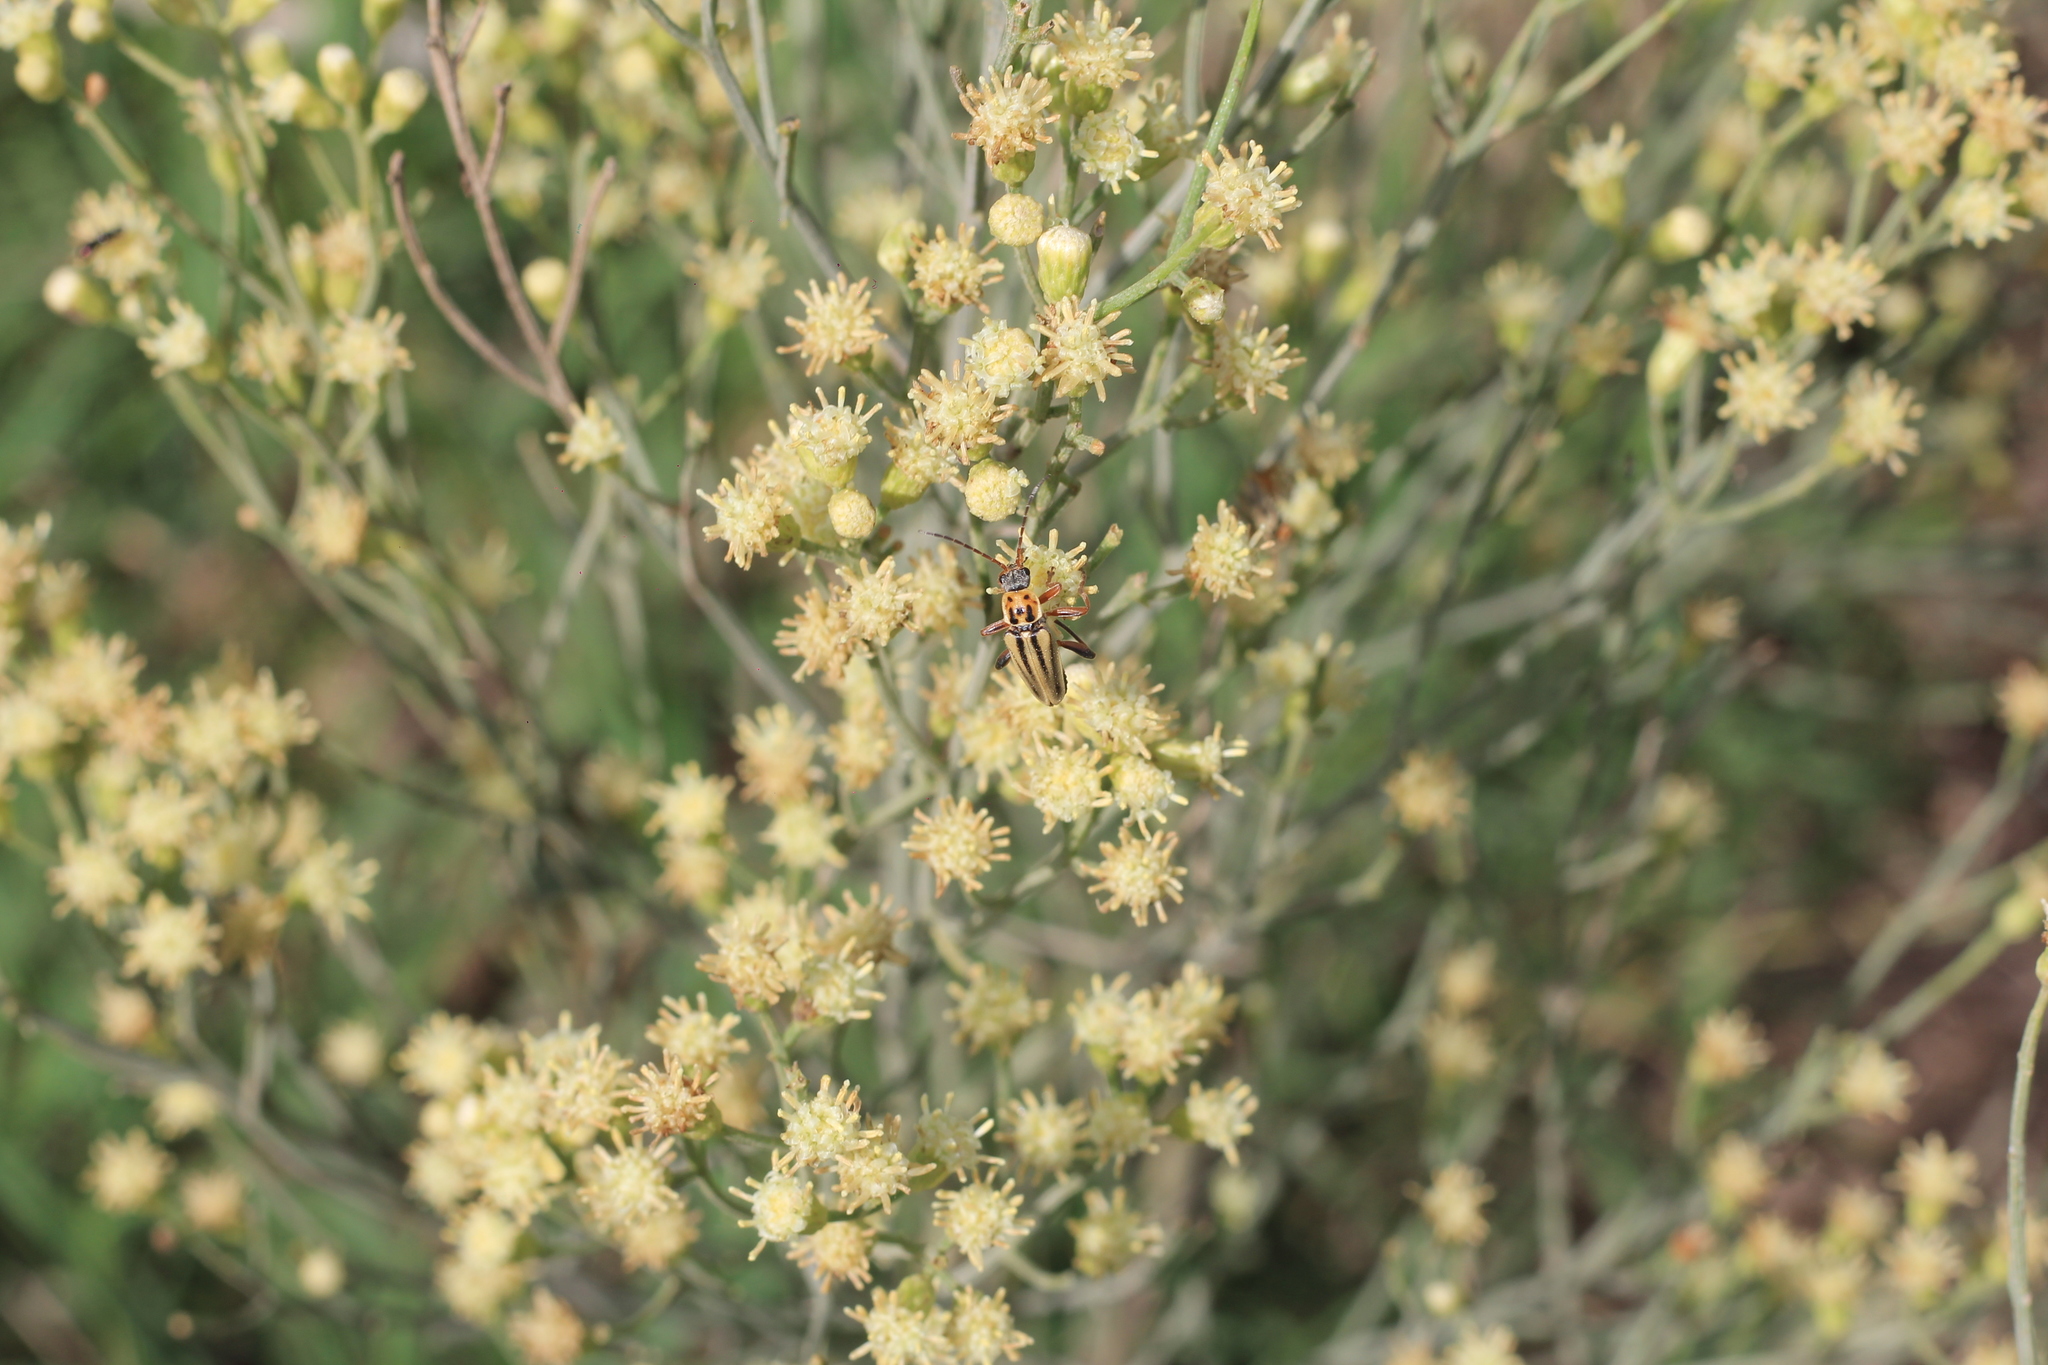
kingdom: Animalia
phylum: Arthropoda
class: Insecta
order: Coleoptera
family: Cantharidae
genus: Chauliognathus
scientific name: Chauliognathus
